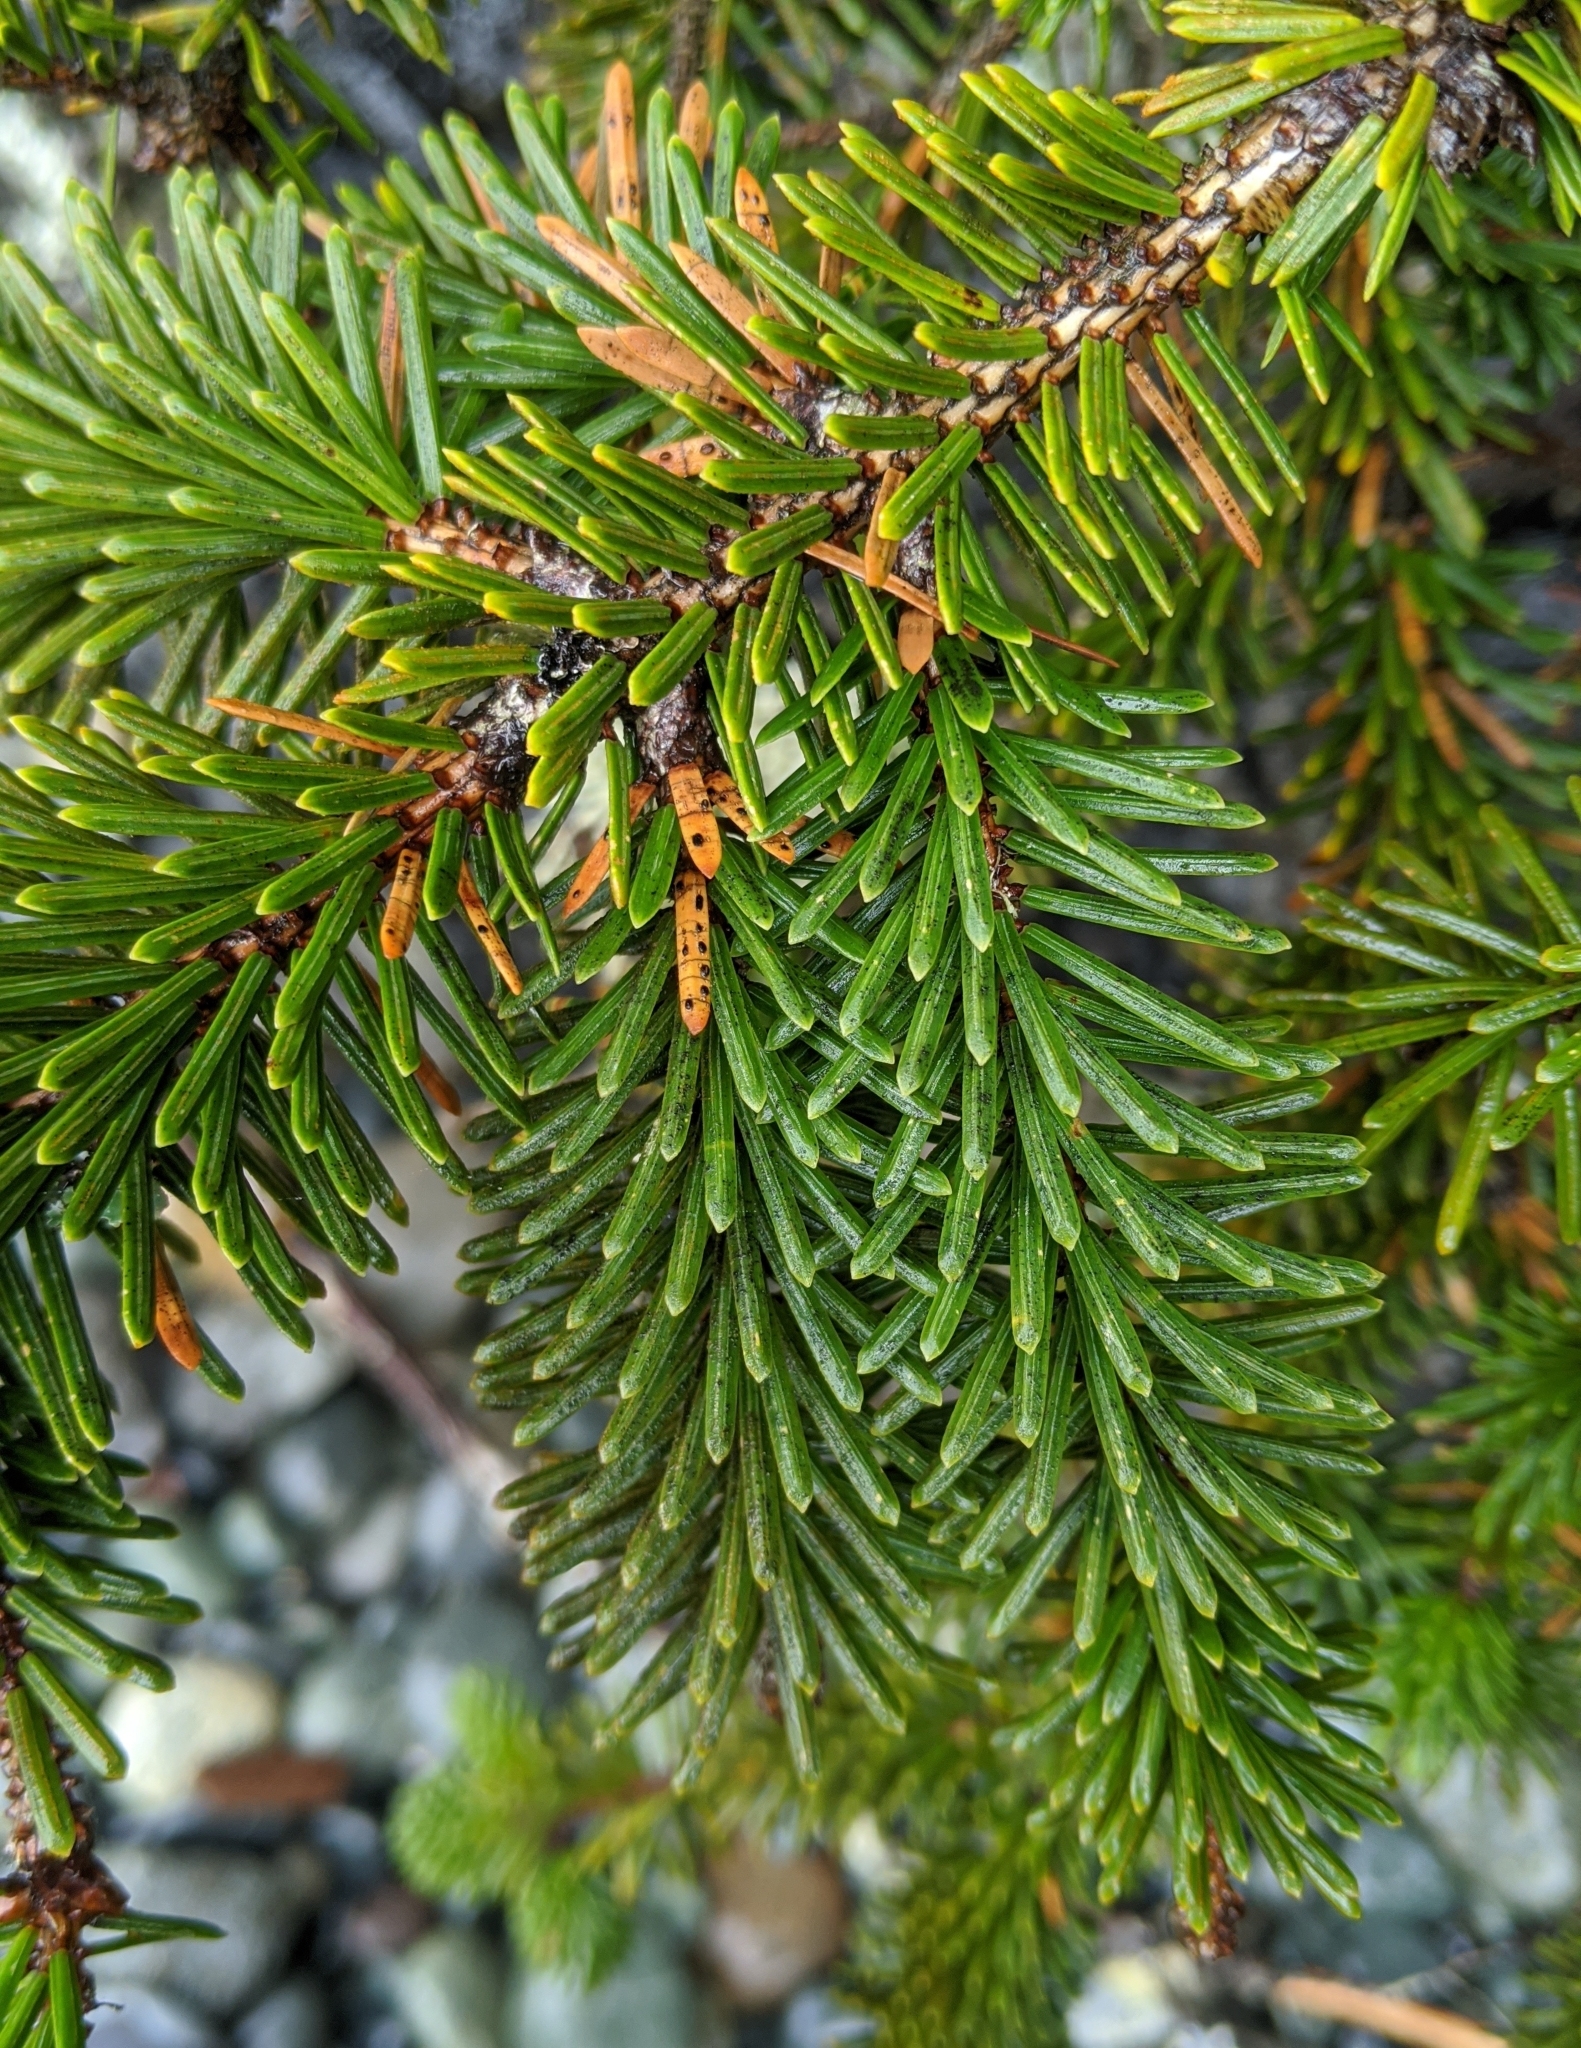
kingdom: Plantae
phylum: Tracheophyta
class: Pinopsida
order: Pinales
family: Pinaceae
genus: Picea
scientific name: Picea sitchensis
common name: Sitka spruce
